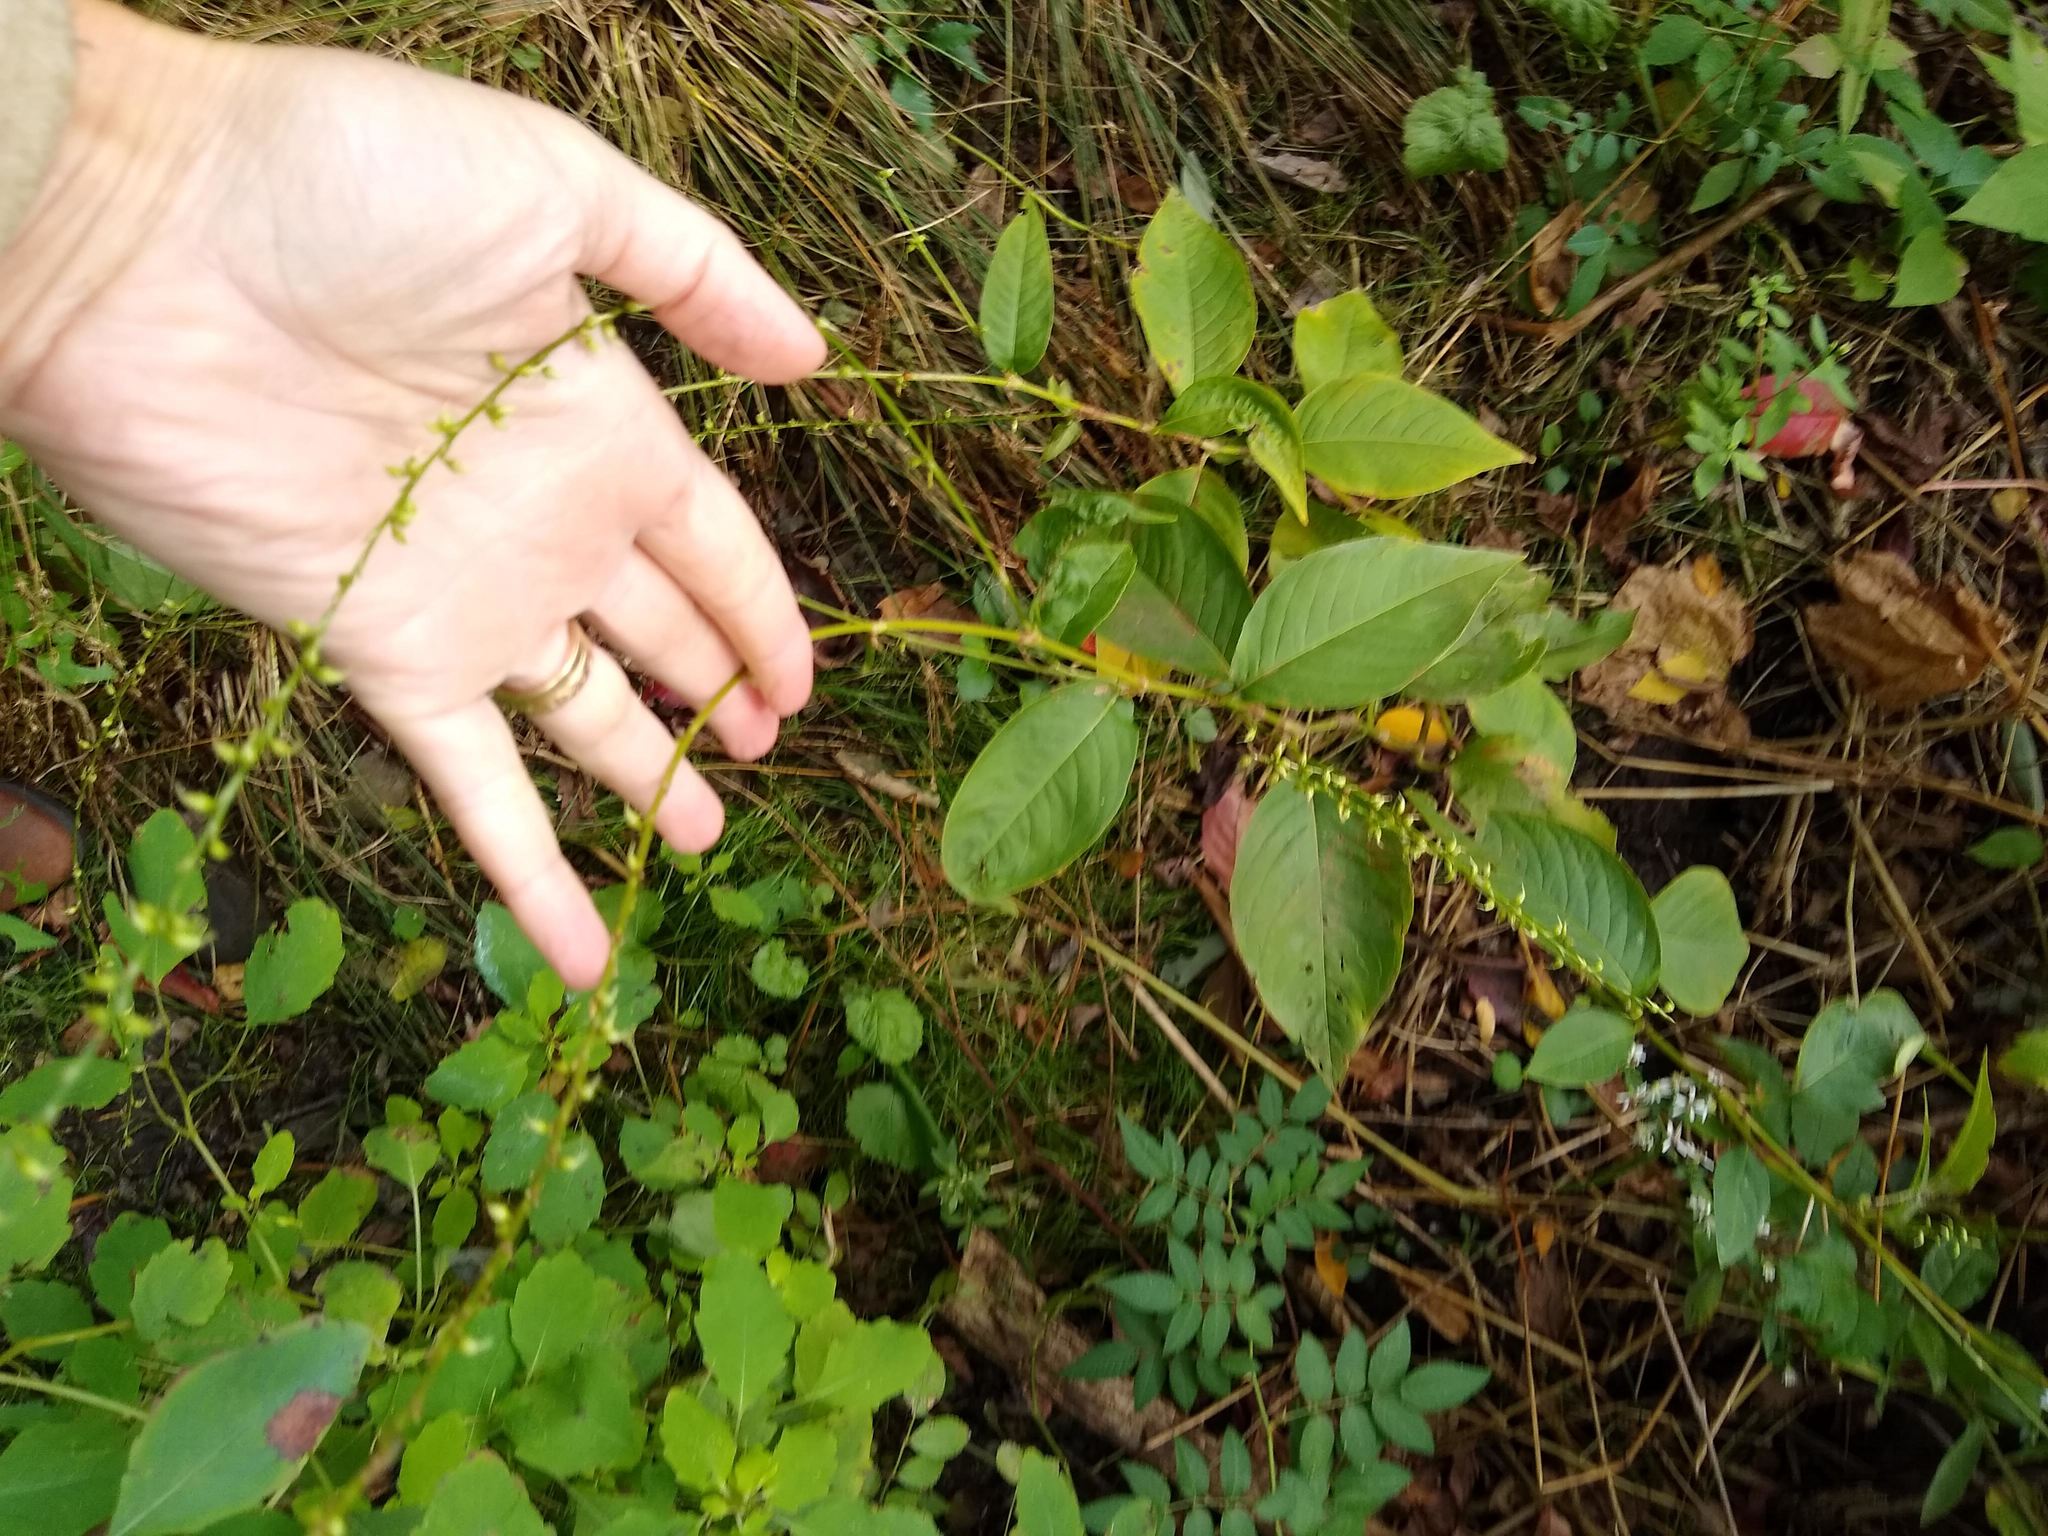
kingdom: Plantae
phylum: Tracheophyta
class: Magnoliopsida
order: Caryophyllales
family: Polygonaceae
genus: Persicaria
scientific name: Persicaria virginiana
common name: Jumpseed
